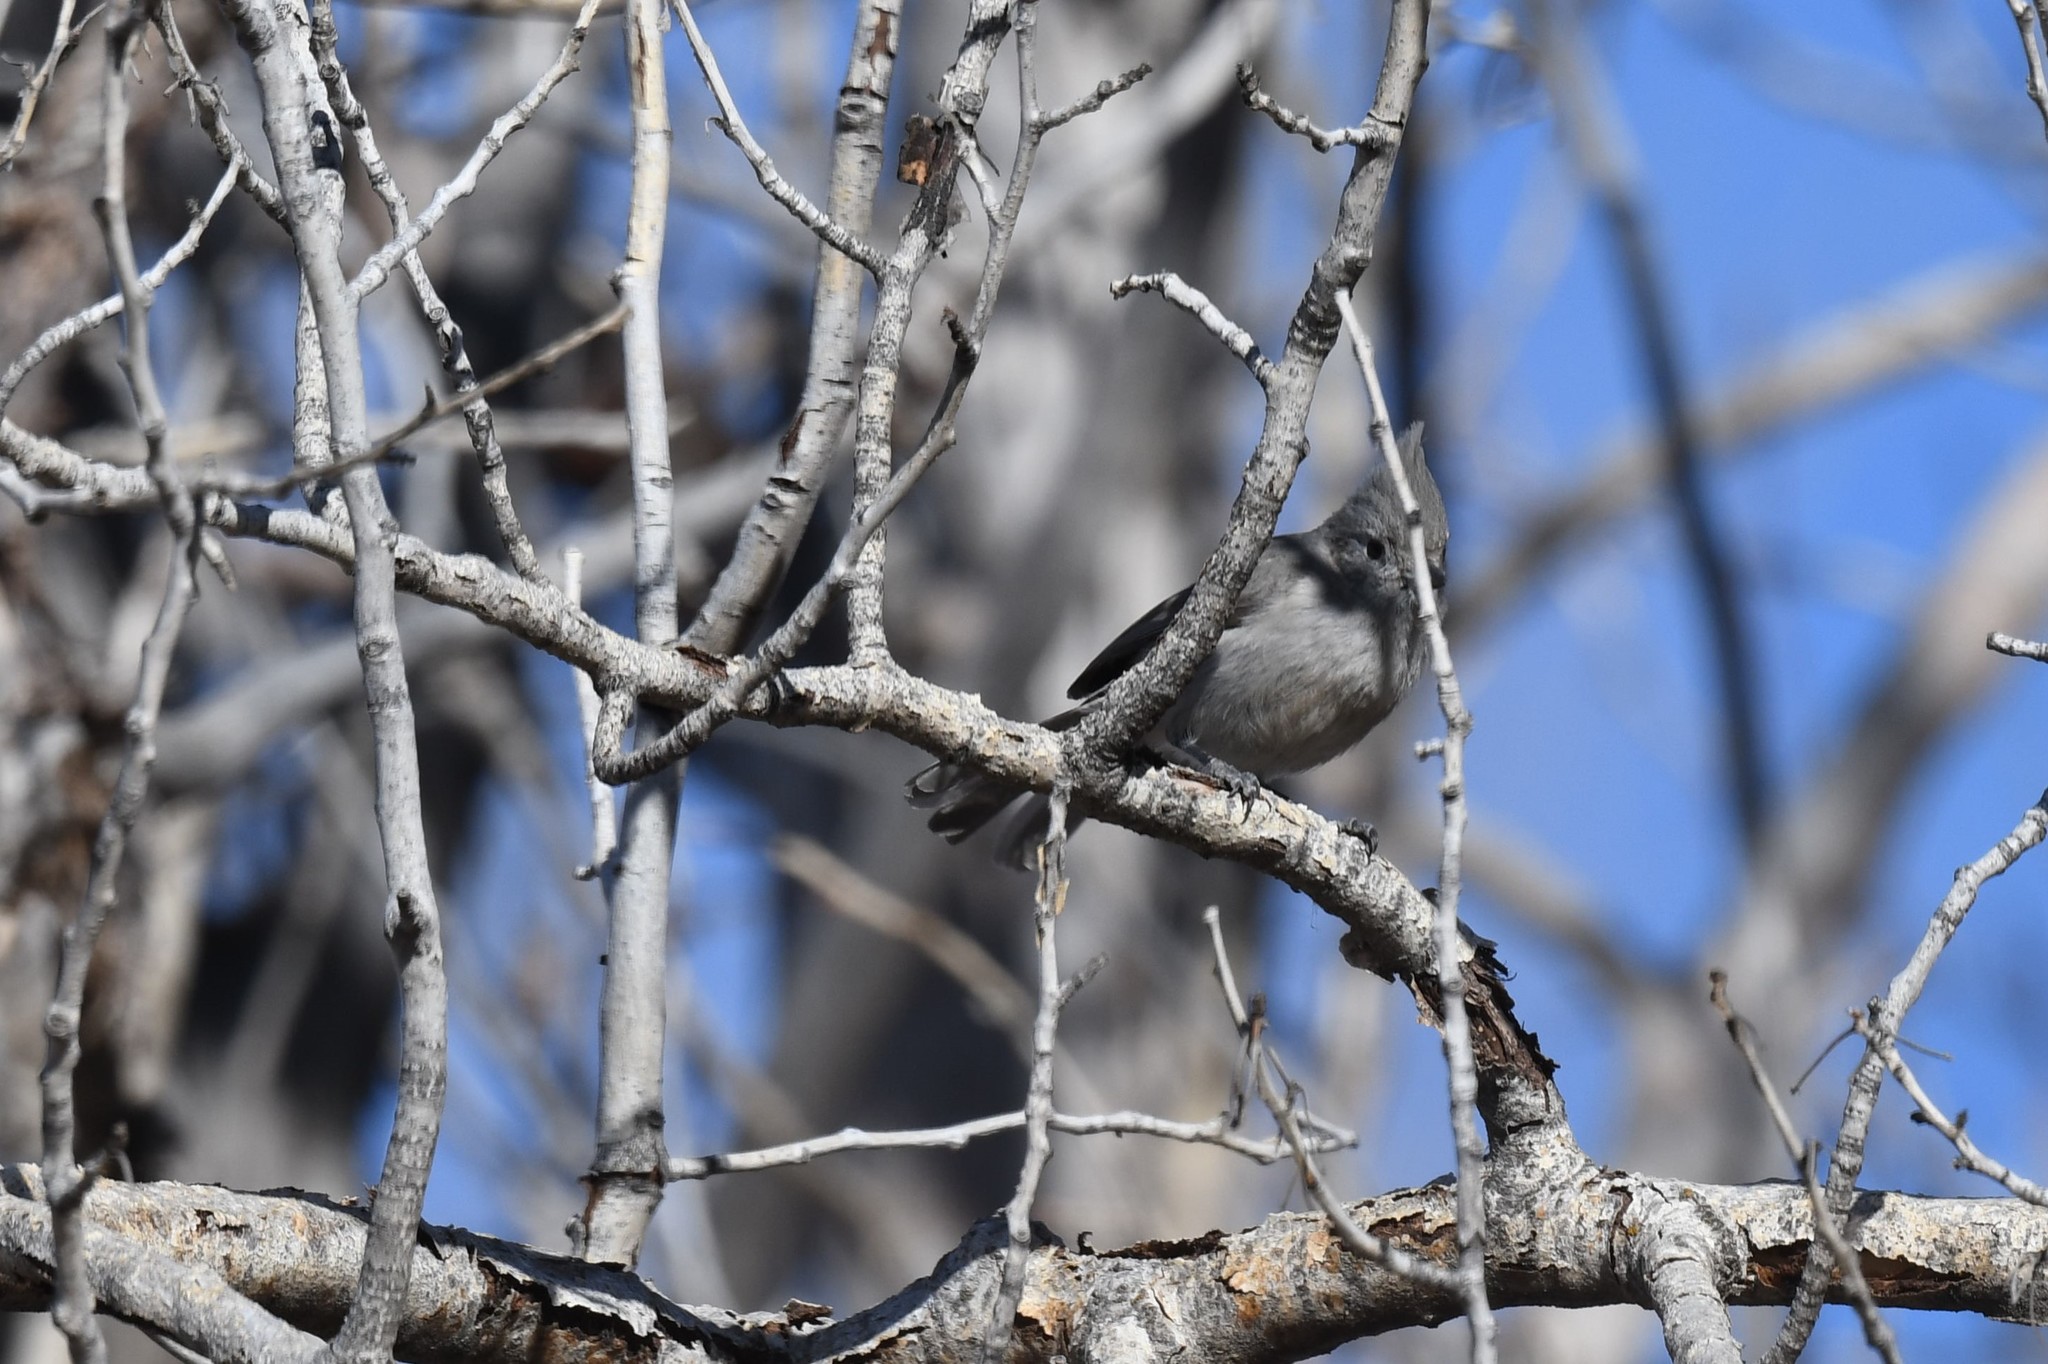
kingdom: Animalia
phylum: Chordata
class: Aves
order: Passeriformes
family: Paridae
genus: Baeolophus
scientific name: Baeolophus ridgwayi
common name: Juniper titmouse
